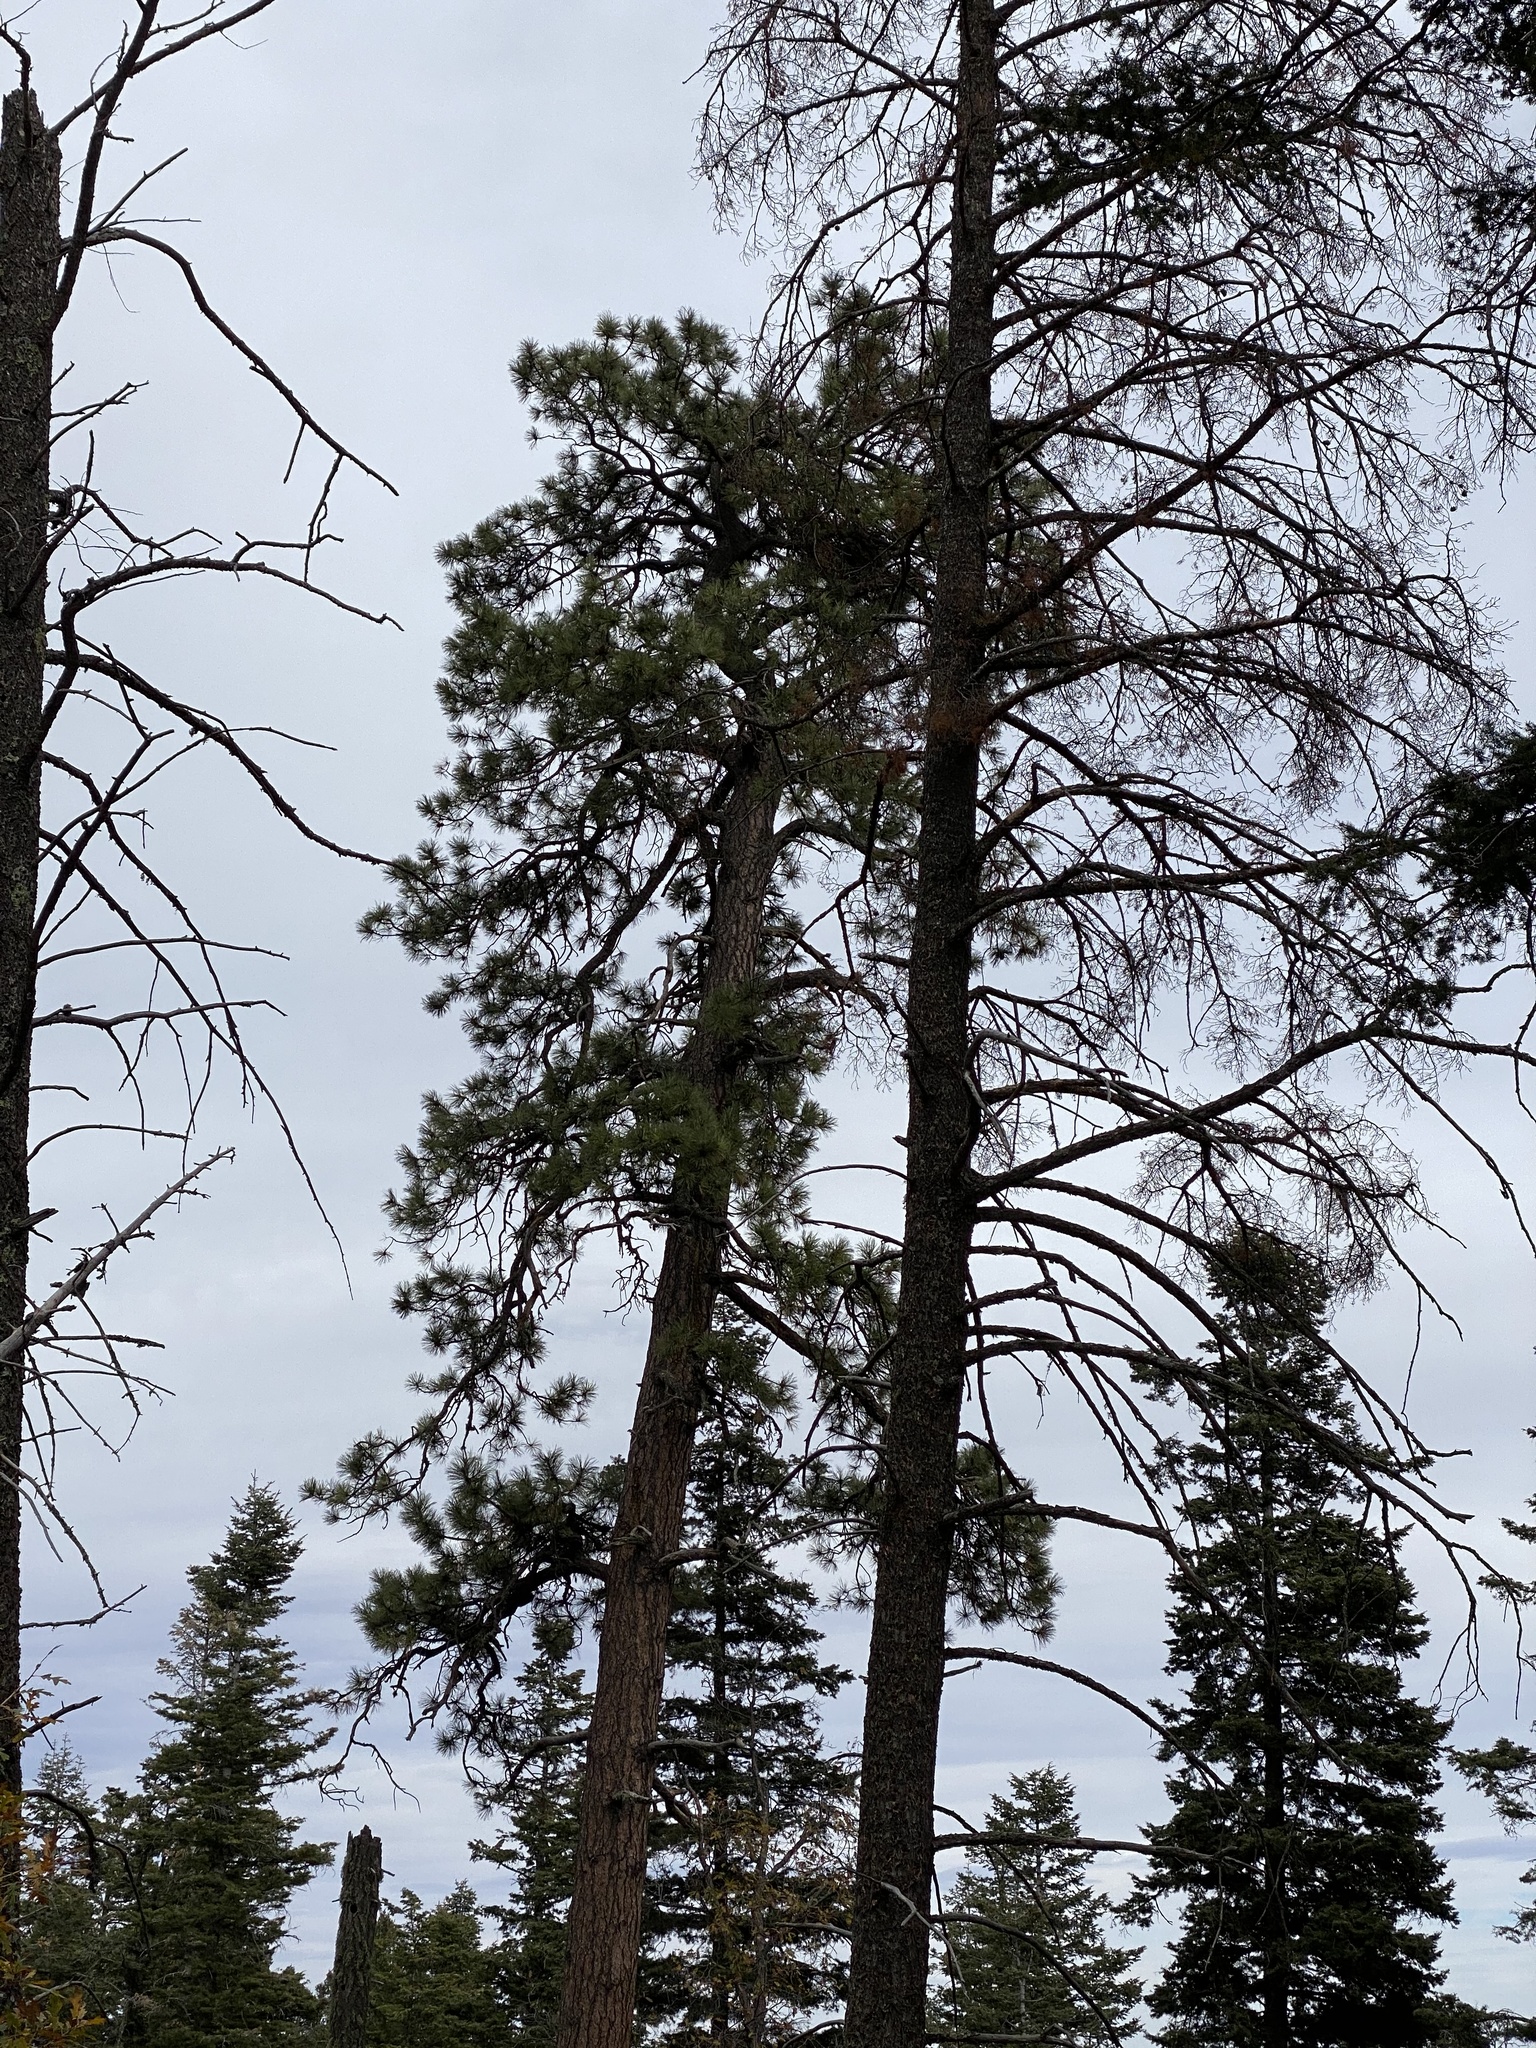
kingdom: Plantae
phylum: Tracheophyta
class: Pinopsida
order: Pinales
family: Pinaceae
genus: Pinus
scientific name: Pinus ponderosa
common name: Western yellow-pine
